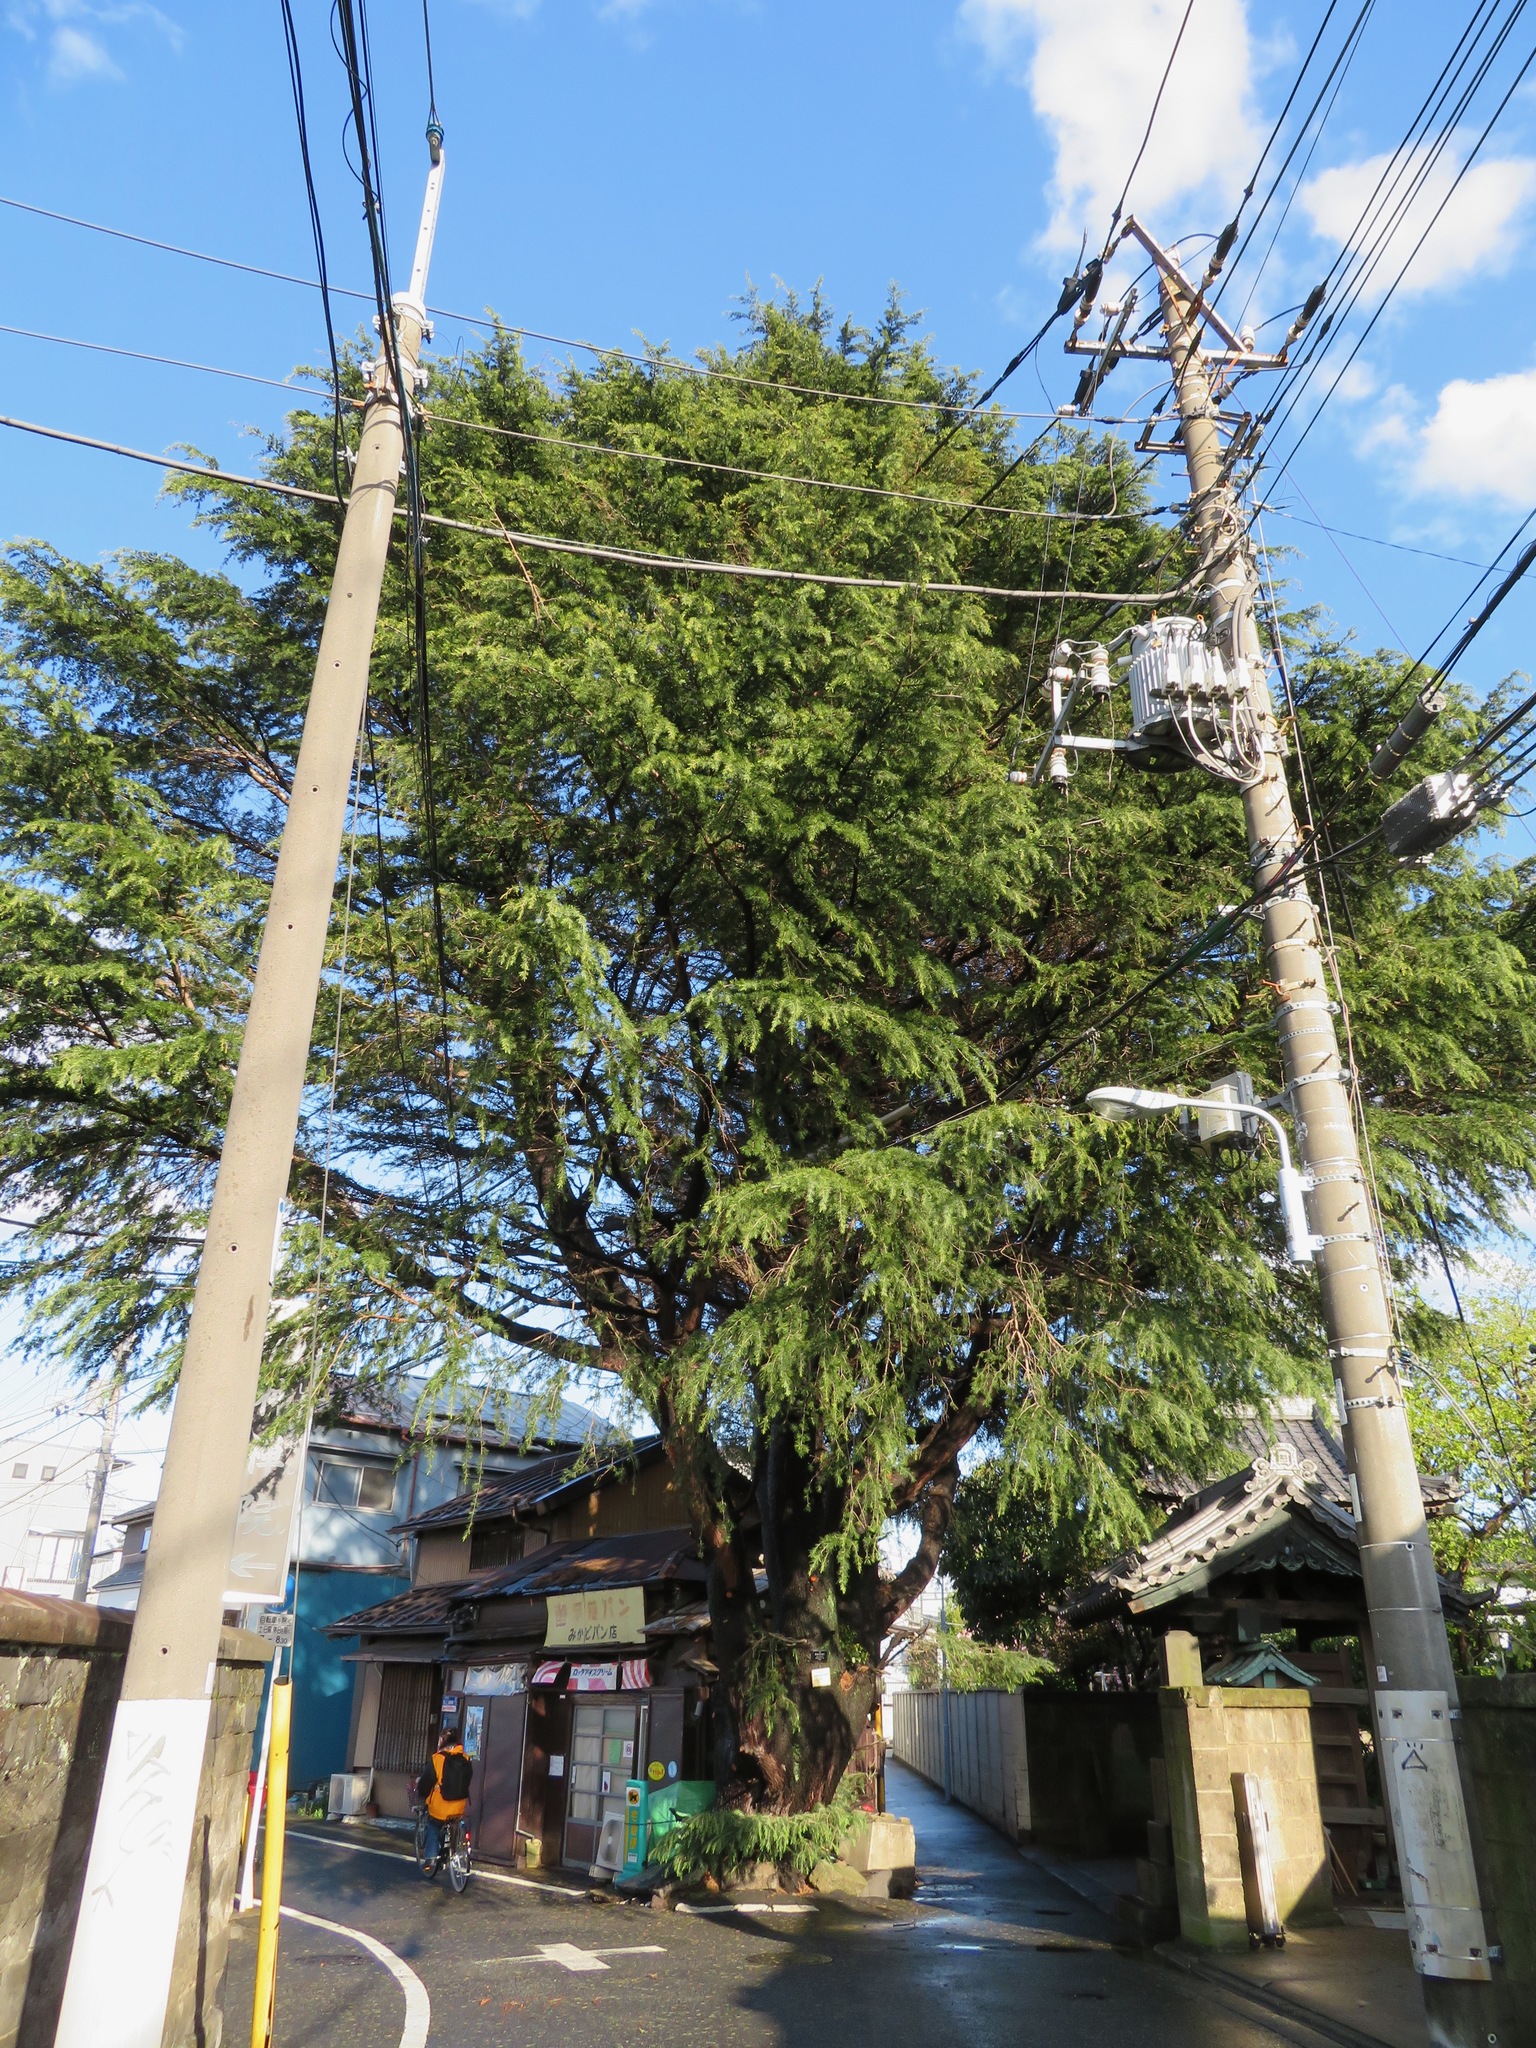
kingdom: Plantae
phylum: Tracheophyta
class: Pinopsida
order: Pinales
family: Pinaceae
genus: Cedrus
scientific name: Cedrus deodara
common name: Deodar
